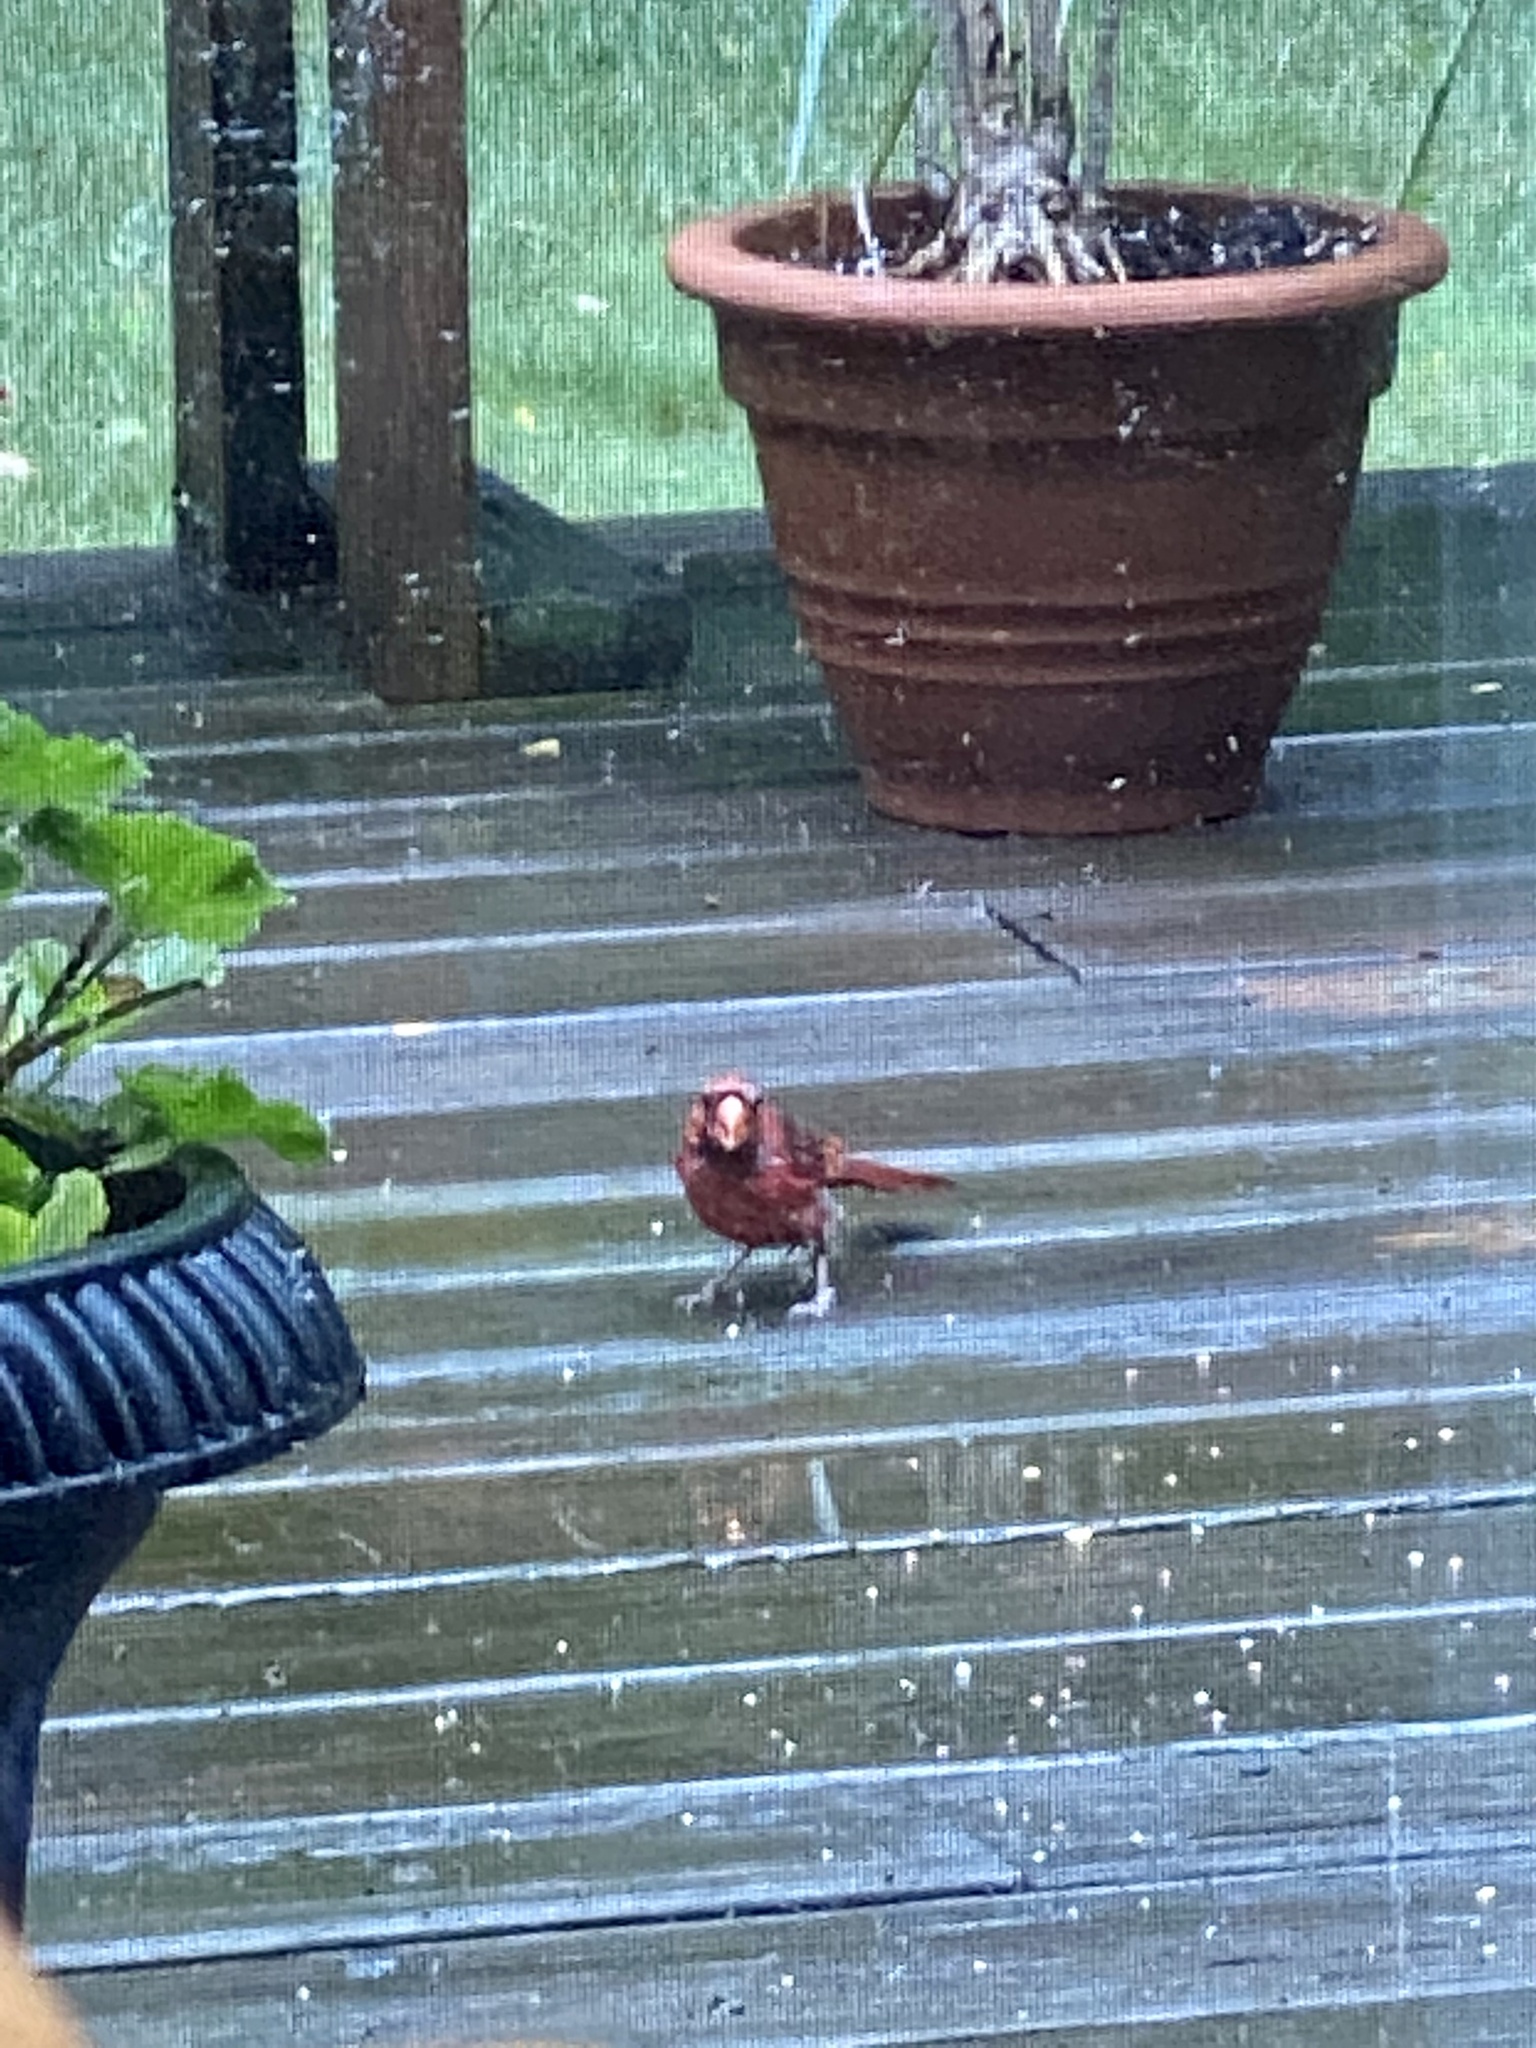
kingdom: Animalia
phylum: Chordata
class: Aves
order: Passeriformes
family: Cardinalidae
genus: Cardinalis
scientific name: Cardinalis cardinalis
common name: Northern cardinal
